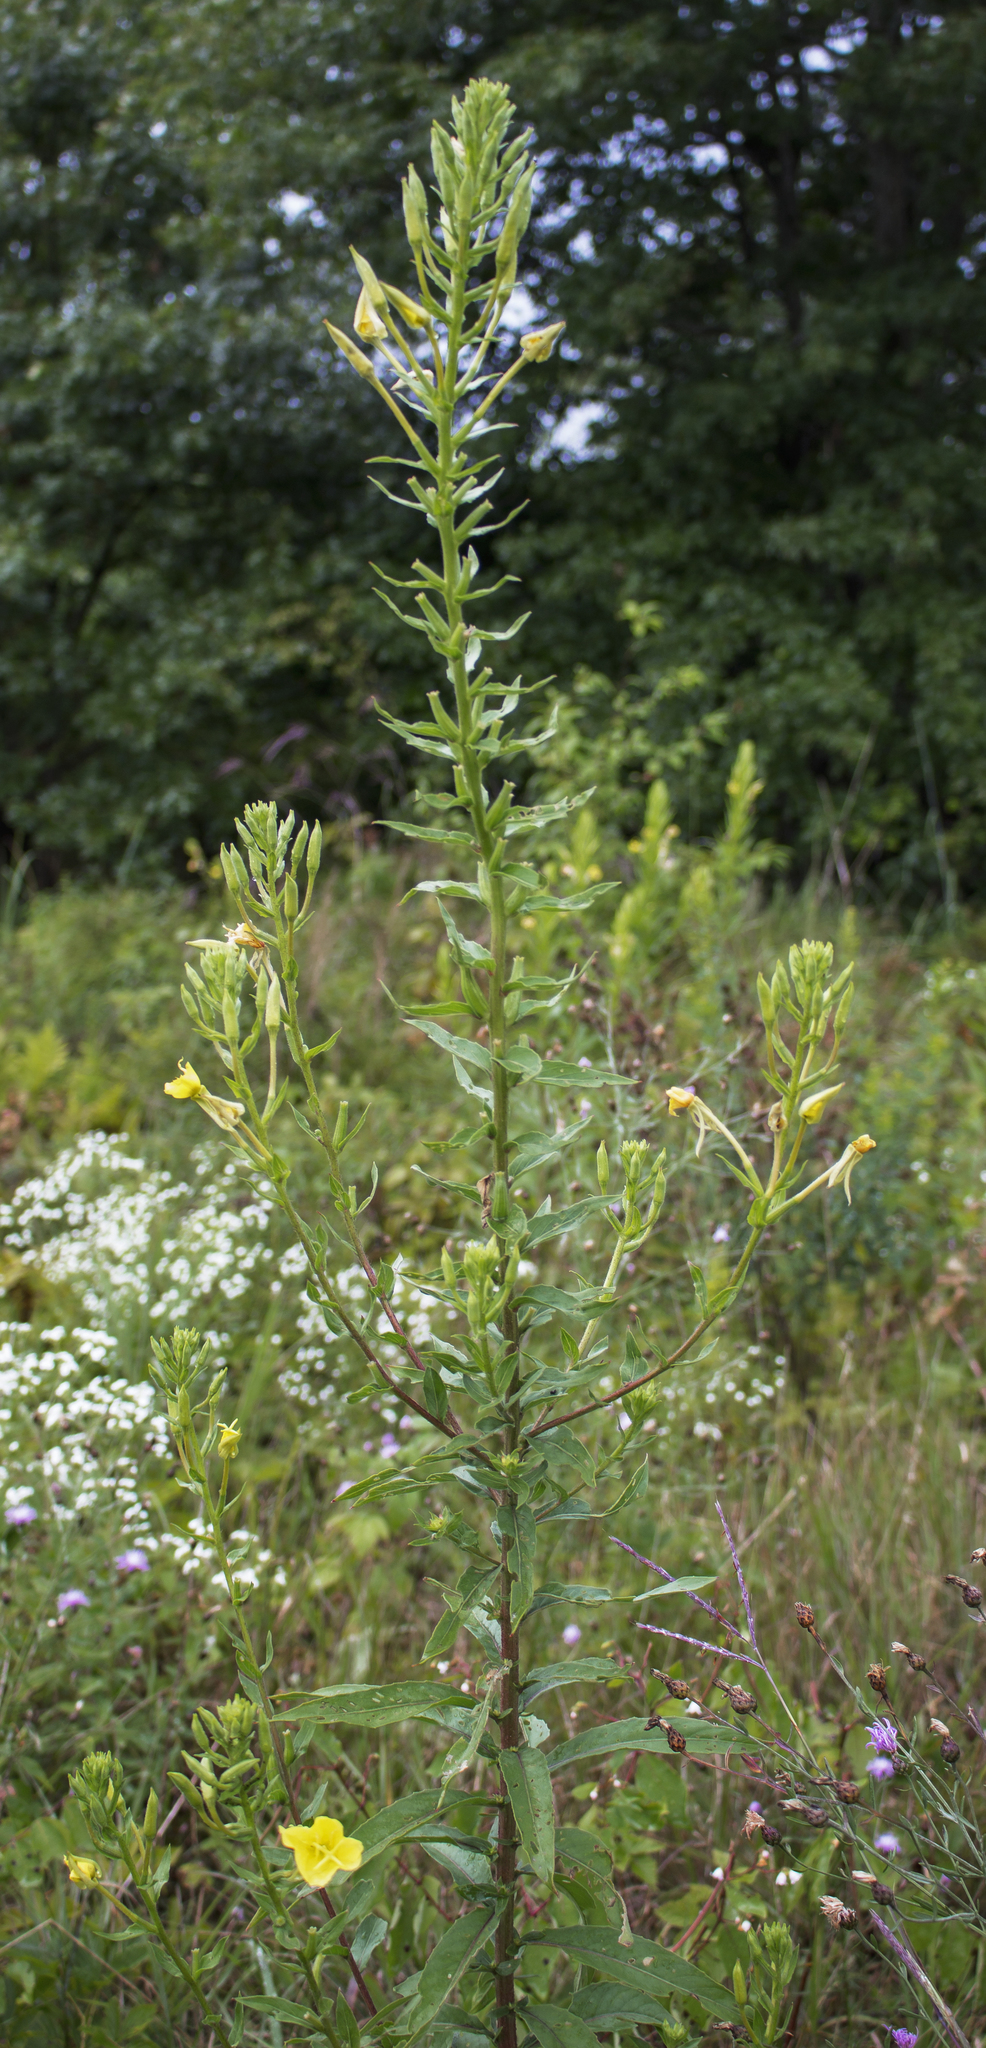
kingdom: Plantae
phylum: Tracheophyta
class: Magnoliopsida
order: Myrtales
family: Onagraceae
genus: Oenothera
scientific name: Oenothera biennis
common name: Common evening-primrose
